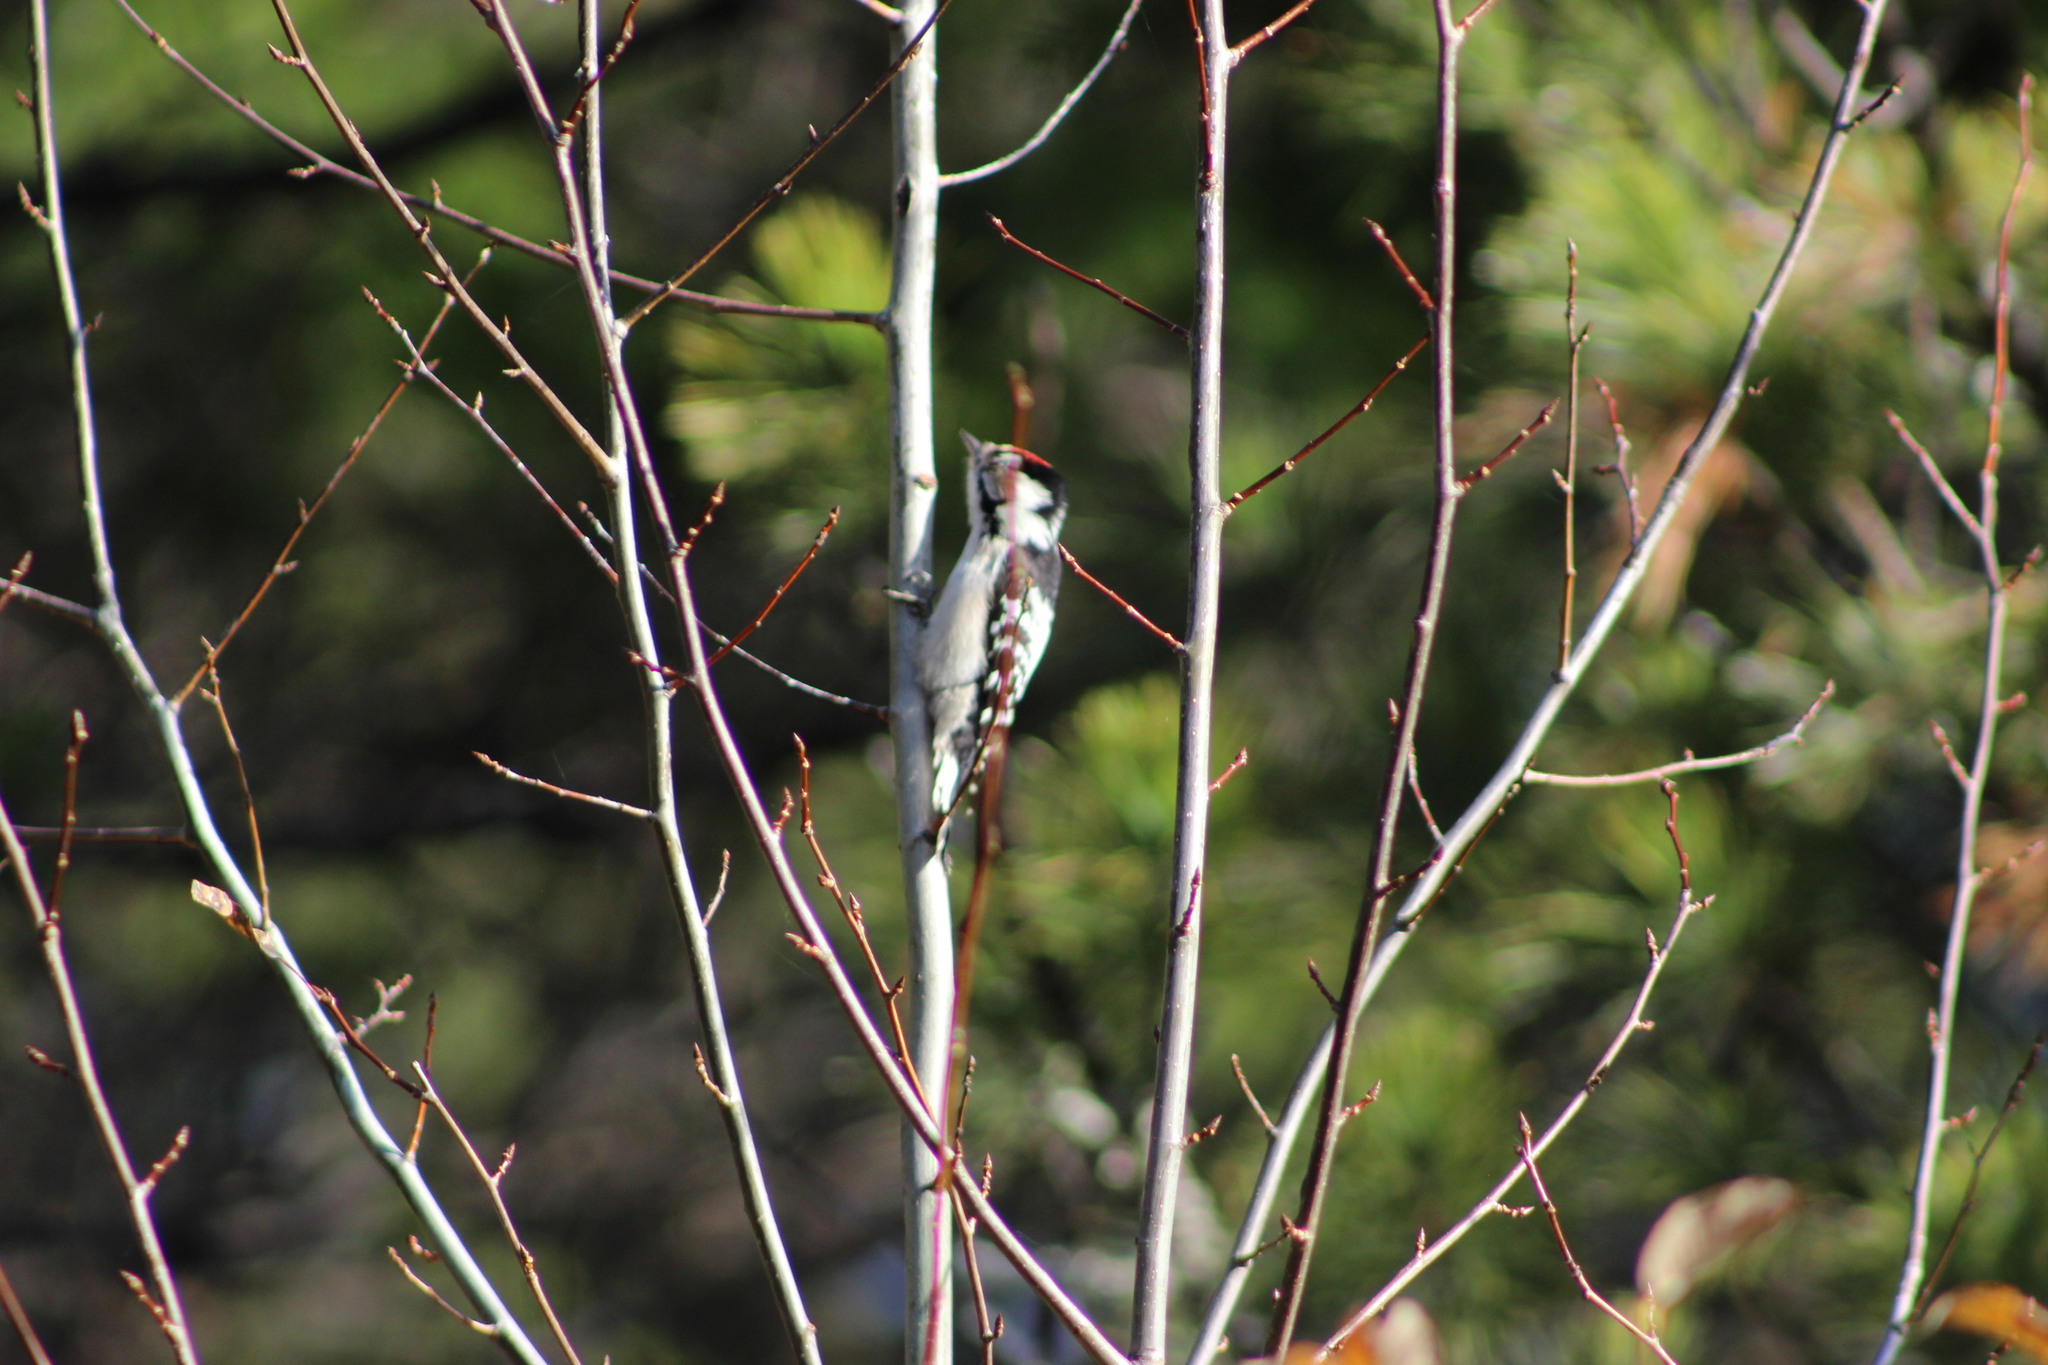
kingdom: Animalia
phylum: Chordata
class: Aves
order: Piciformes
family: Picidae
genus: Dryobates
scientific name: Dryobates minor
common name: Lesser spotted woodpecker
